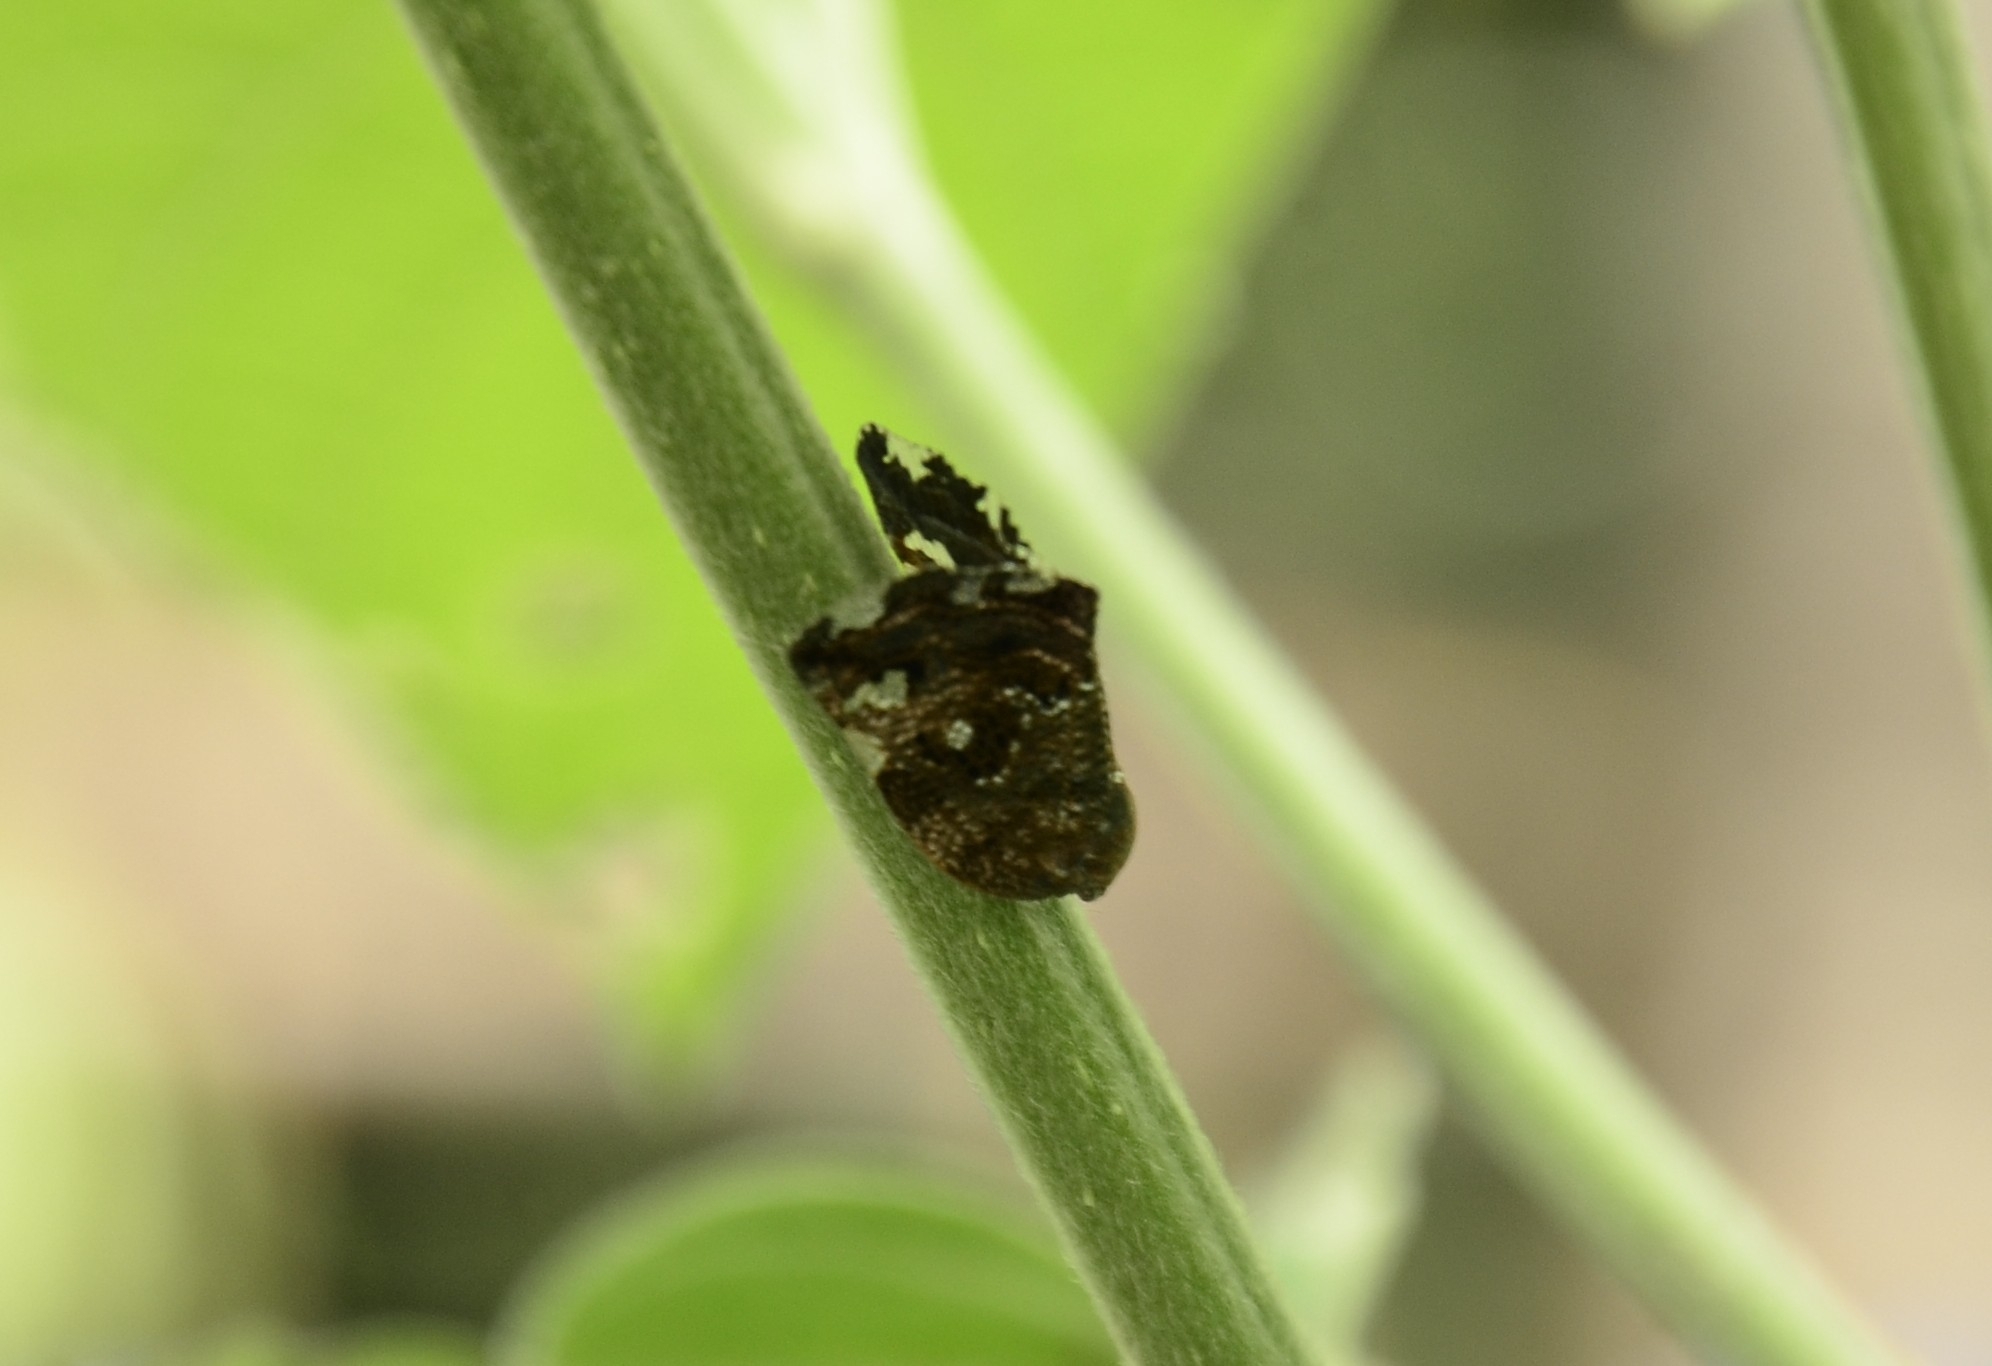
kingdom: Animalia
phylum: Arthropoda
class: Insecta
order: Hemiptera
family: Ricaniidae
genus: Ricania
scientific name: Ricania speculum
